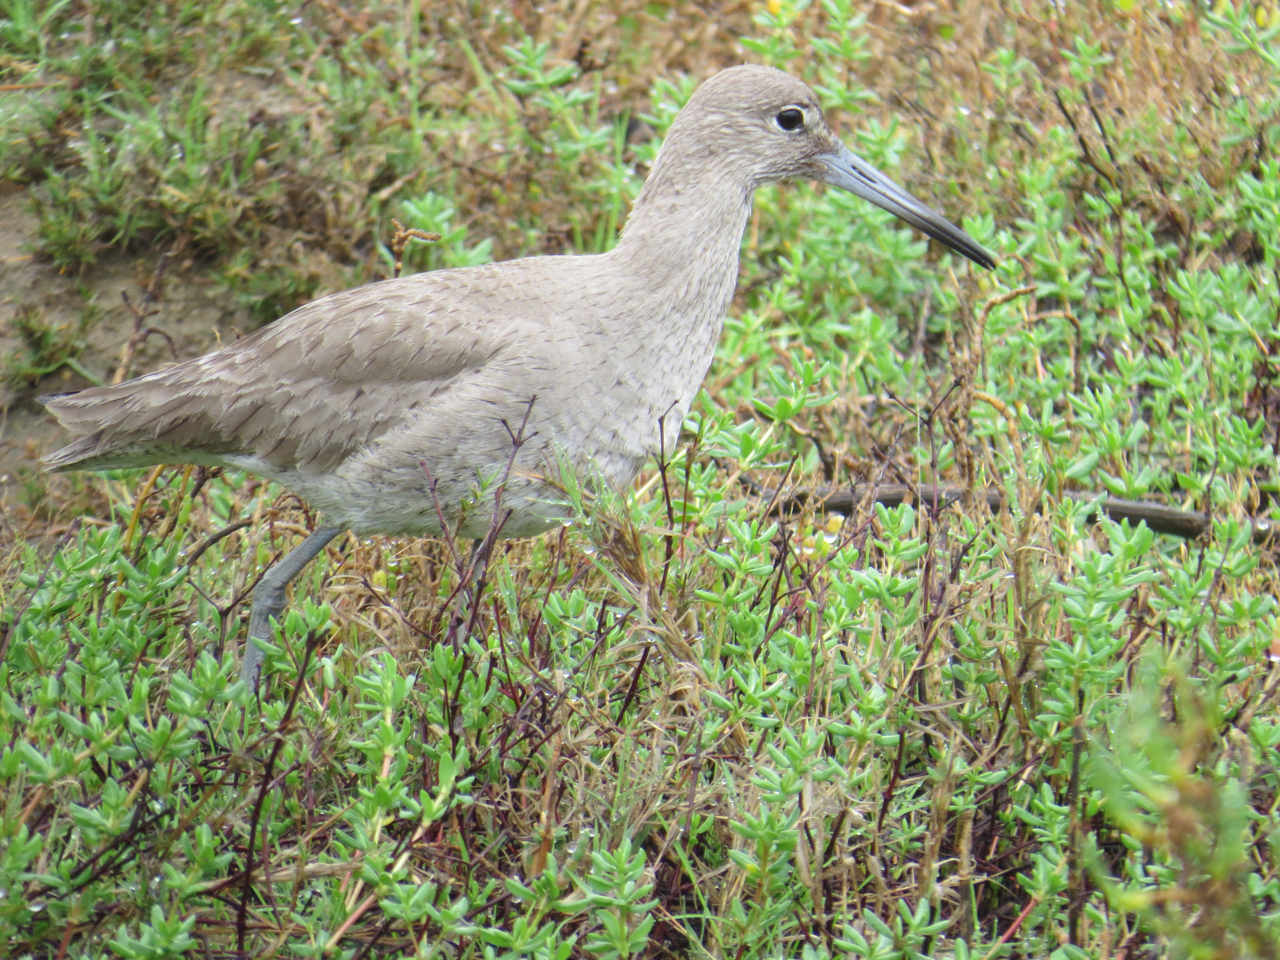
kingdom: Animalia
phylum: Chordata
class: Aves
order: Charadriiformes
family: Scolopacidae
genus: Tringa
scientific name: Tringa semipalmata
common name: Willet
